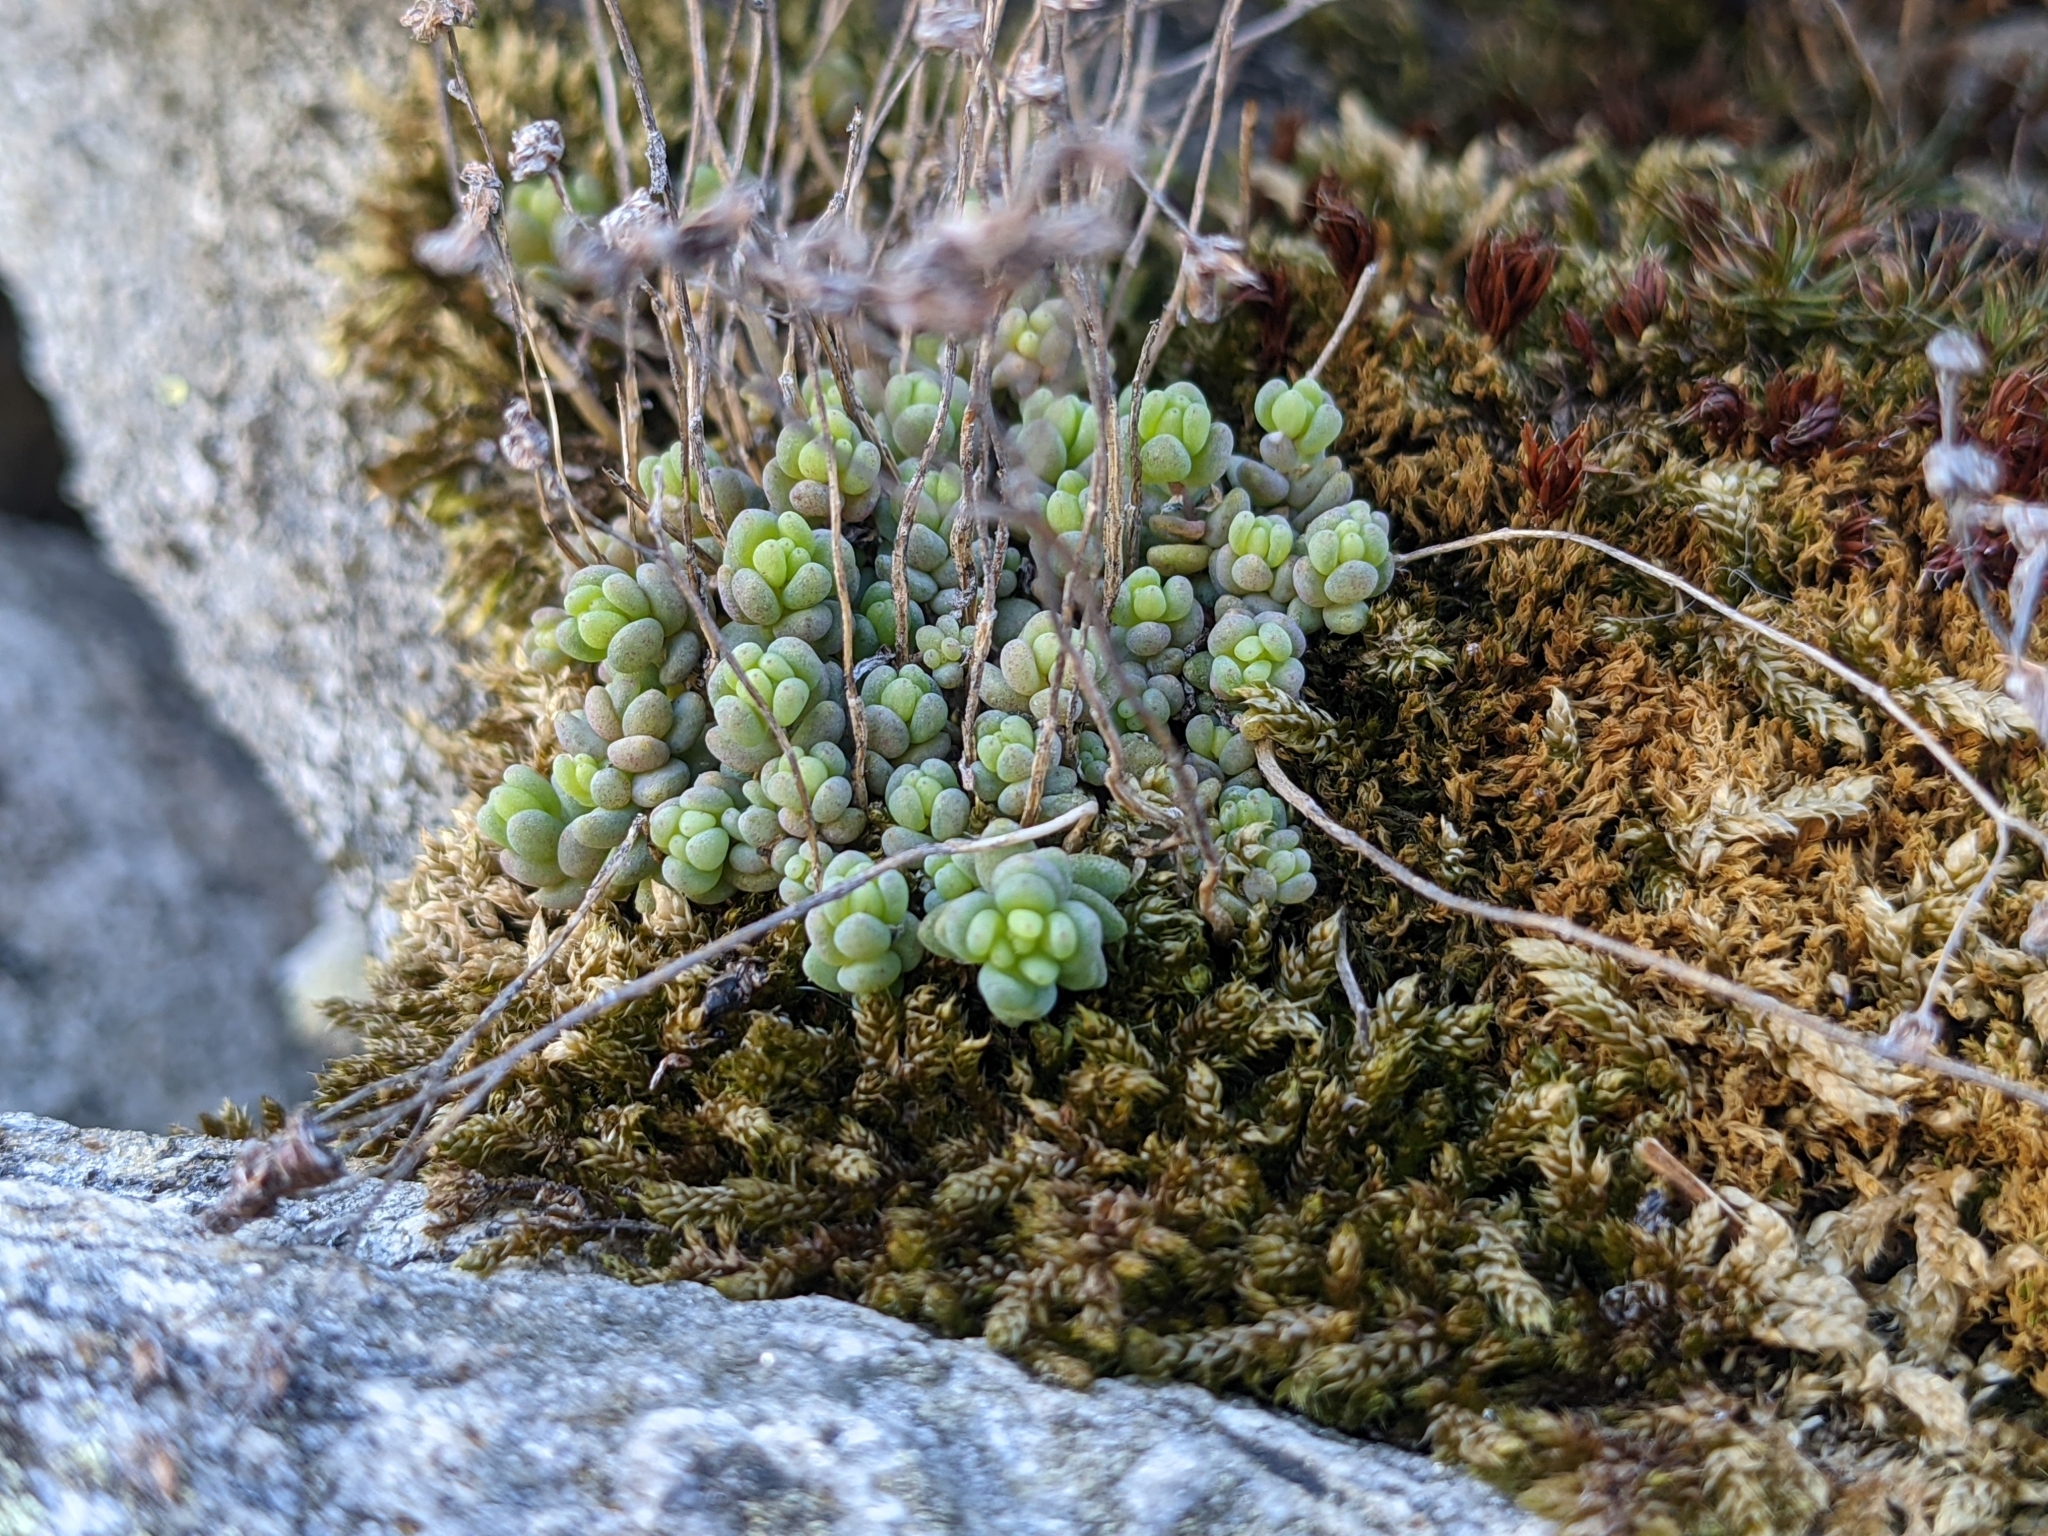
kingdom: Plantae
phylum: Tracheophyta
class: Magnoliopsida
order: Saxifragales
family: Crassulaceae
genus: Sedum
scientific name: Sedum dasyphyllum
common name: Thick-leaf stonecrop
